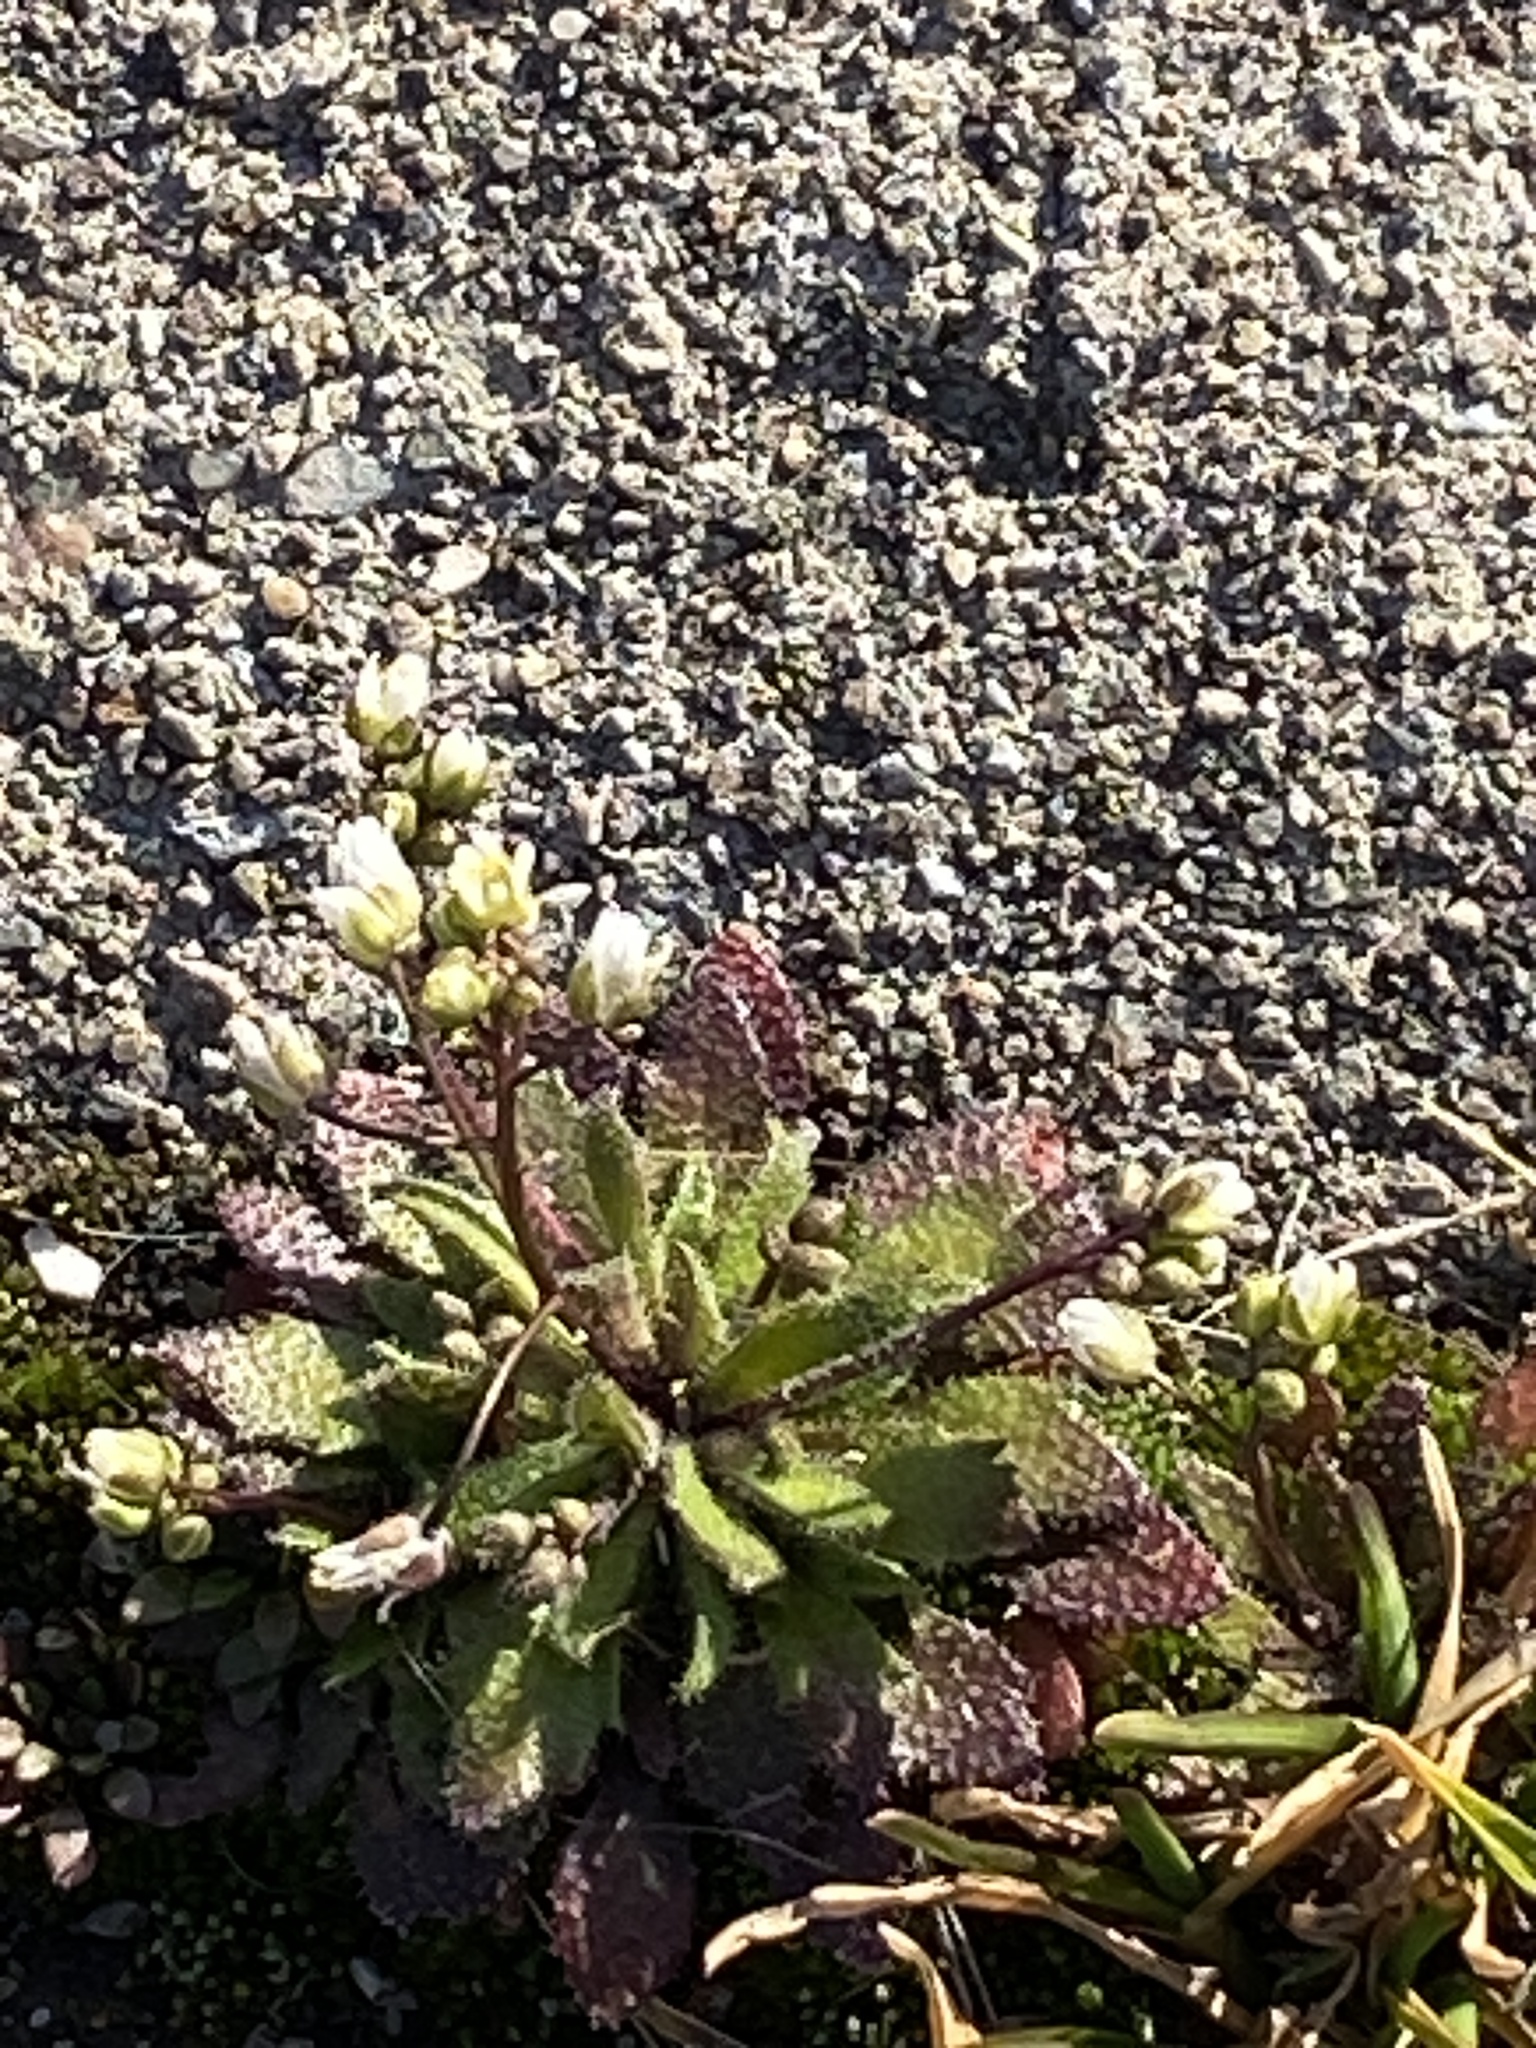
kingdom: Plantae
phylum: Tracheophyta
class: Magnoliopsida
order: Brassicales
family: Brassicaceae
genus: Draba
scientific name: Draba verna
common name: Spring draba
